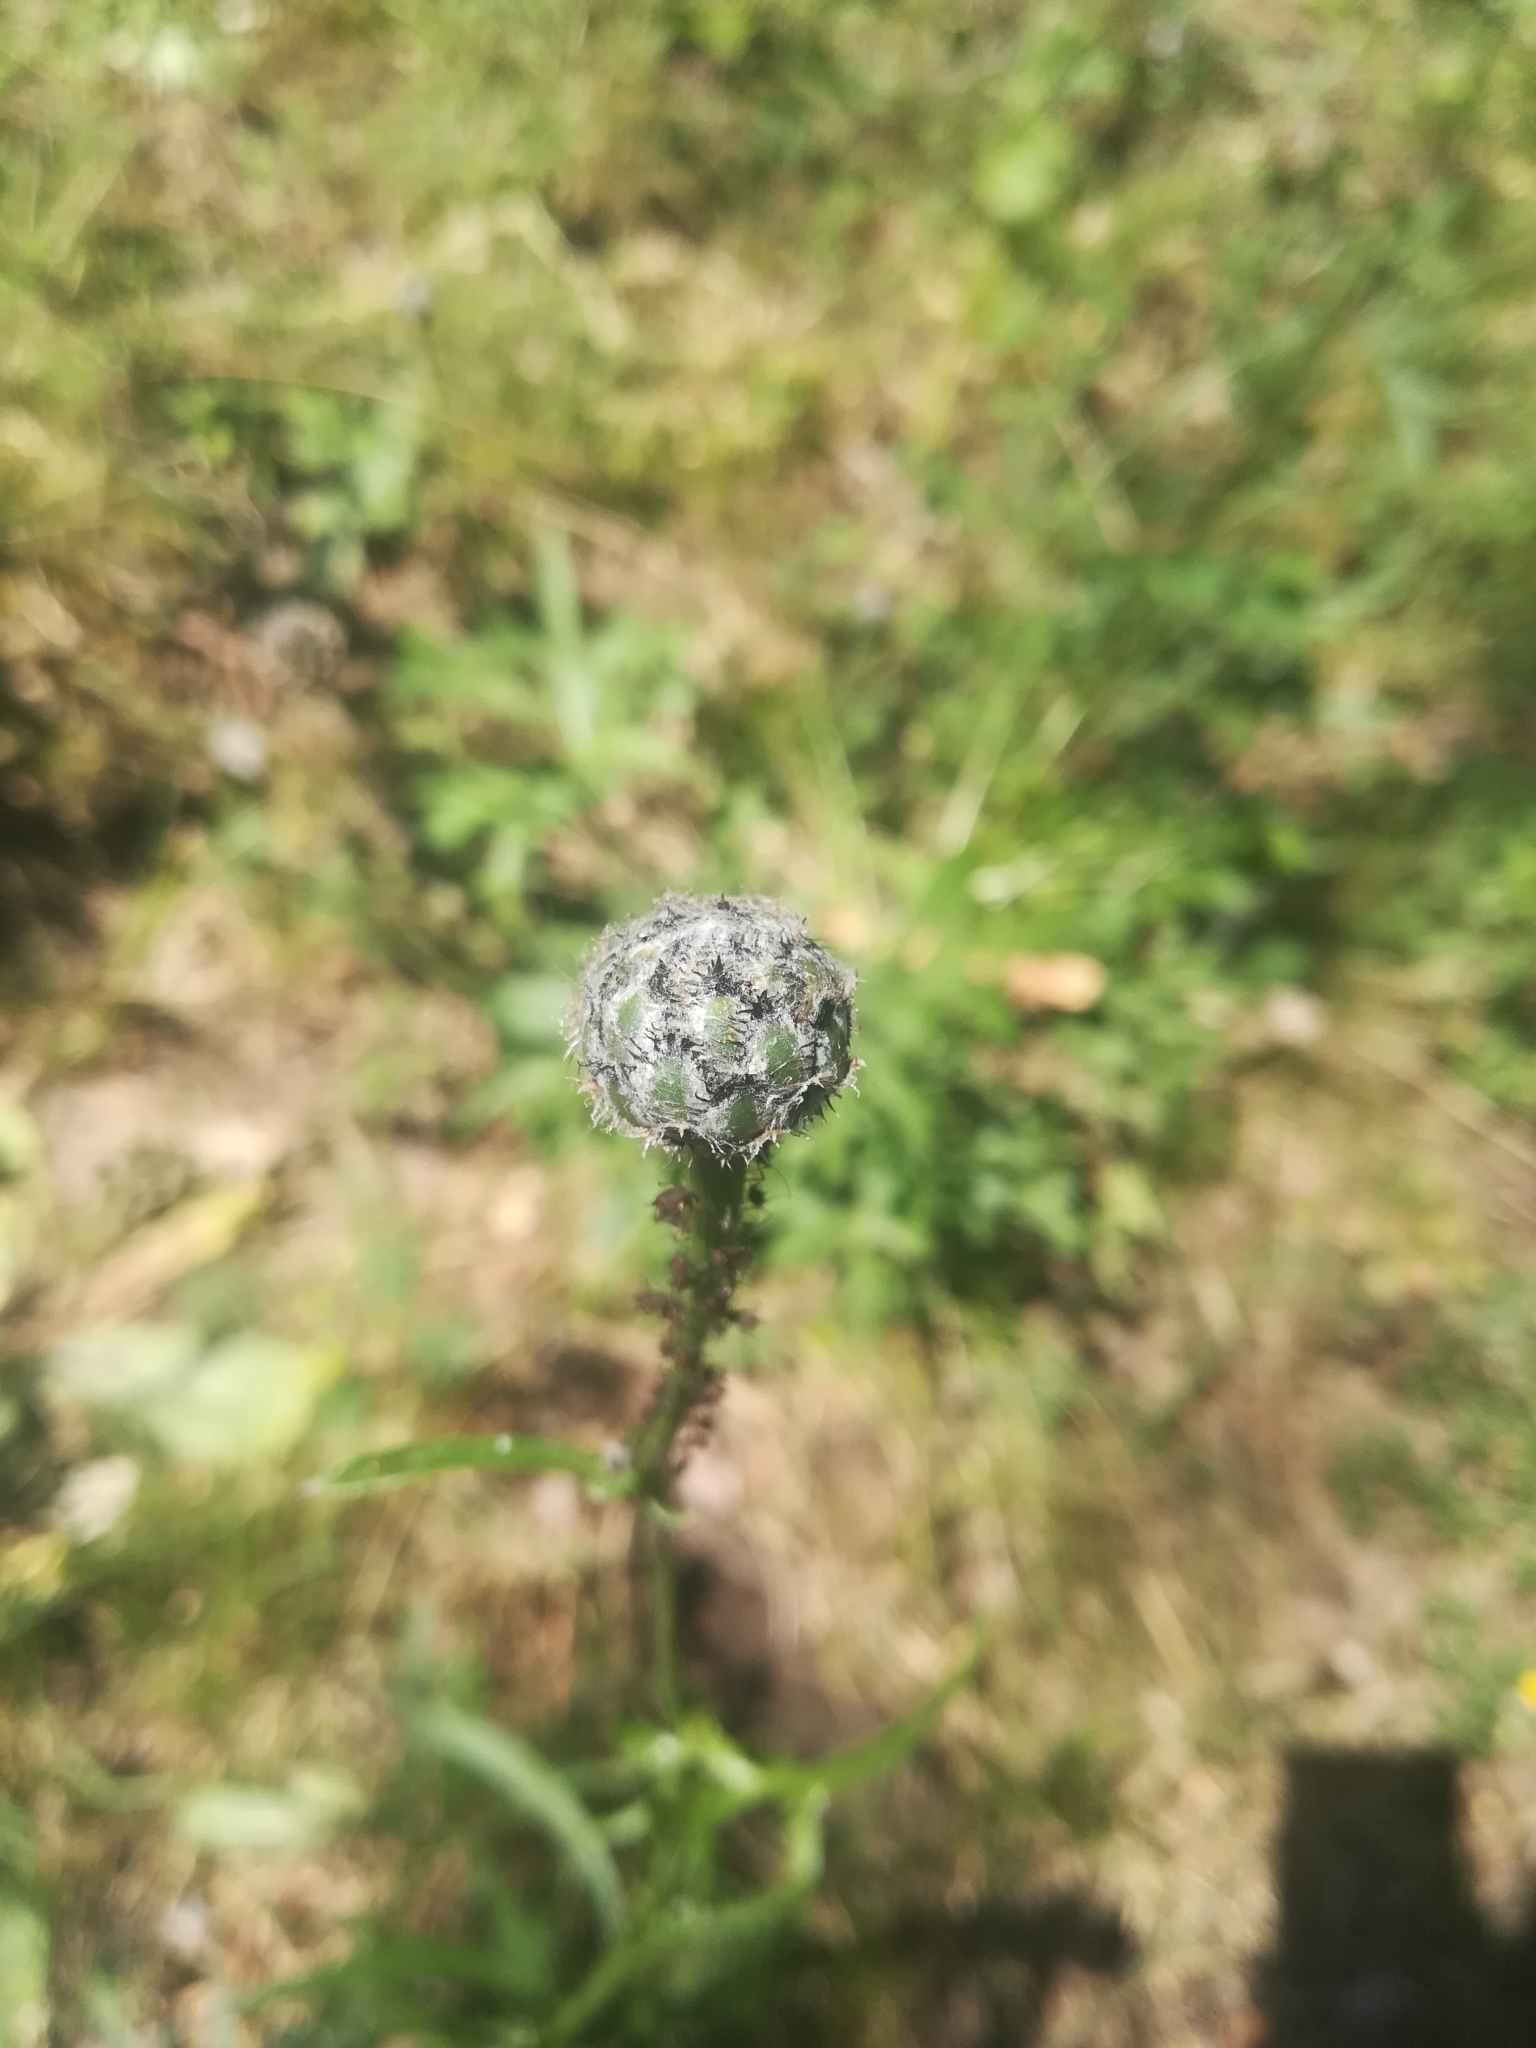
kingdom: Plantae
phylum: Tracheophyta
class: Magnoliopsida
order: Asterales
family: Asteraceae
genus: Centaurea
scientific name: Centaurea scabiosa
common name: Greater knapweed
